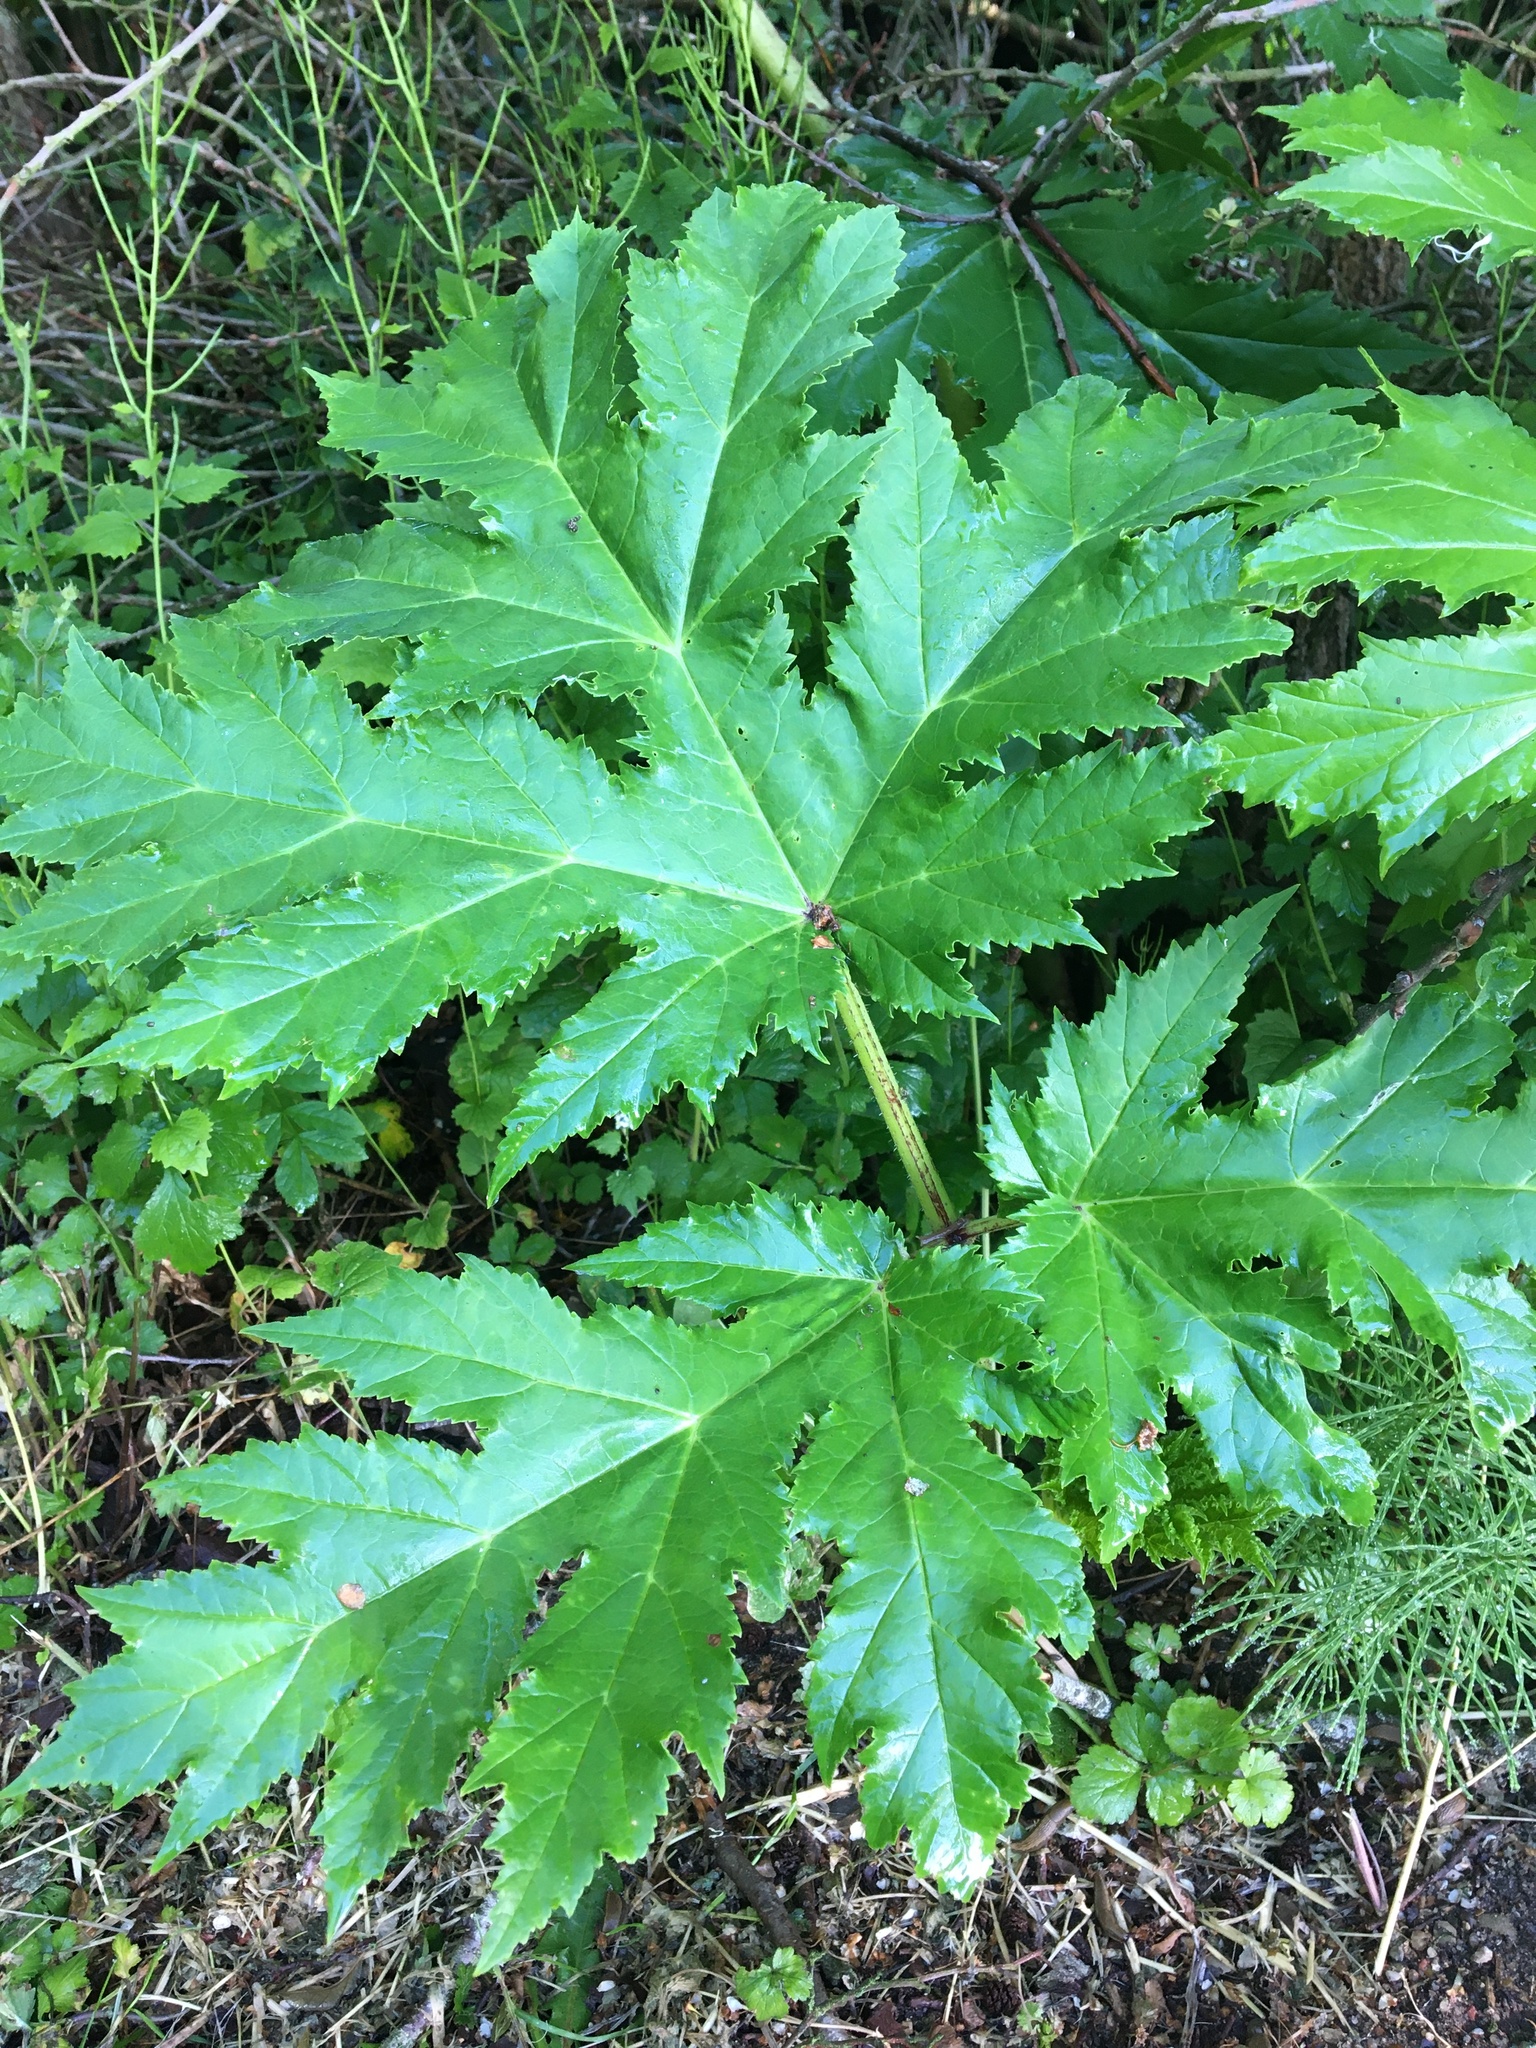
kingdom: Plantae
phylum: Tracheophyta
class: Magnoliopsida
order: Apiales
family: Apiaceae
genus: Heracleum
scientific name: Heracleum mantegazzianum
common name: Giant hogweed
